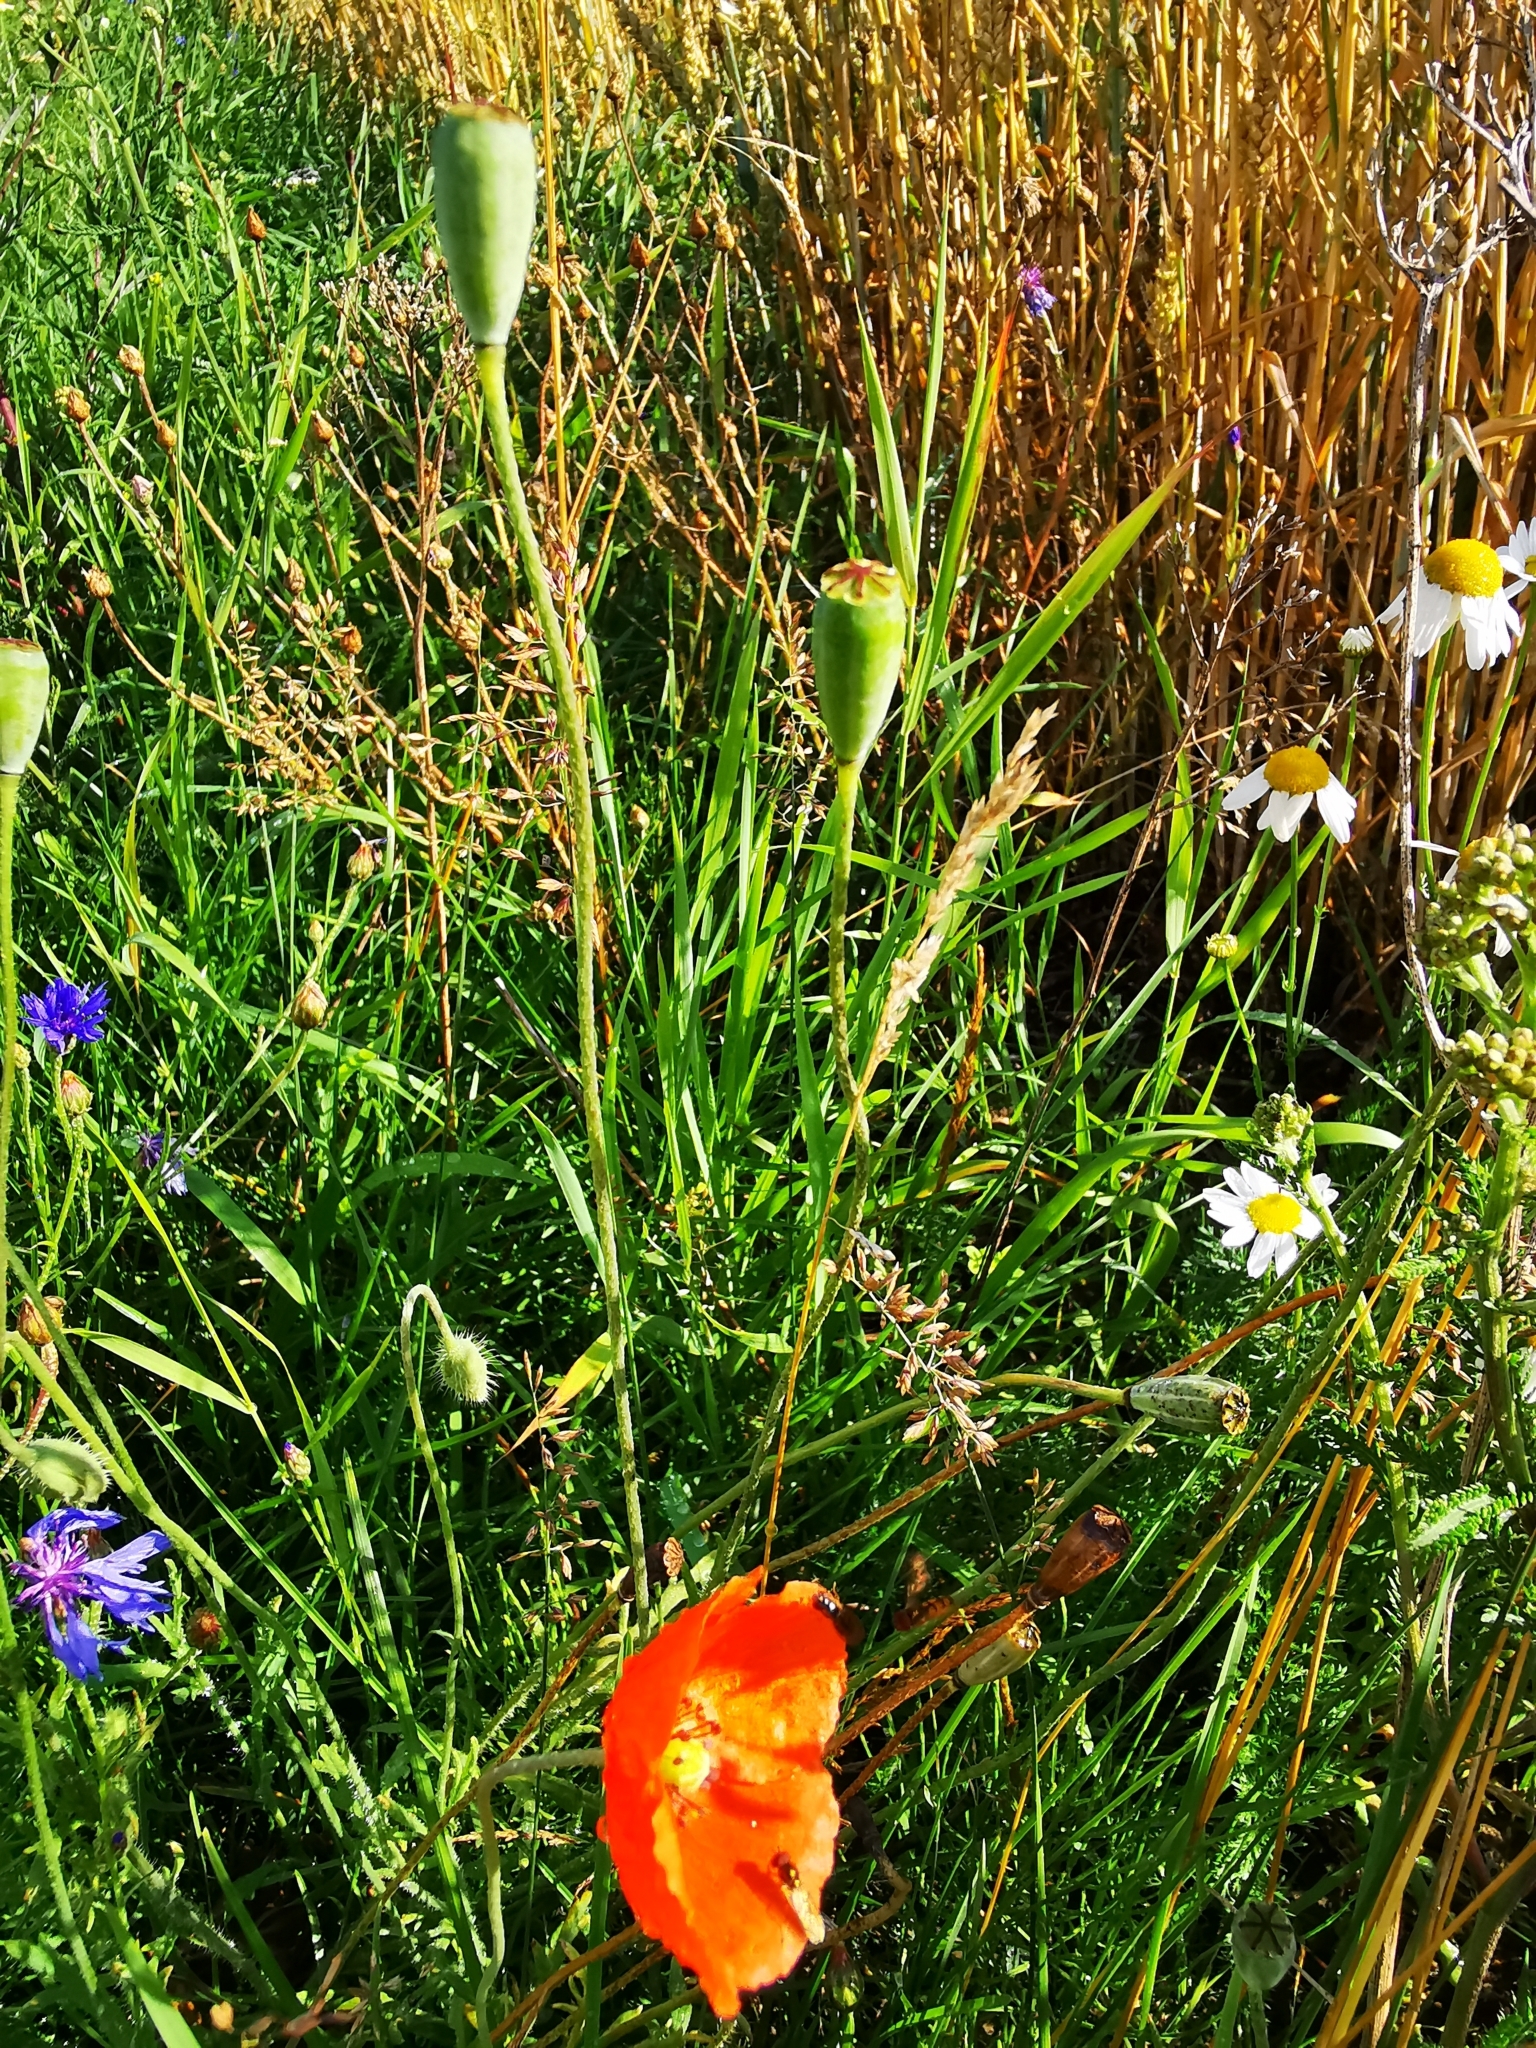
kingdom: Plantae
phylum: Tracheophyta
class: Magnoliopsida
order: Ranunculales
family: Papaveraceae
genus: Papaver
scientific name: Papaver dubium
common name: Long-headed poppy
